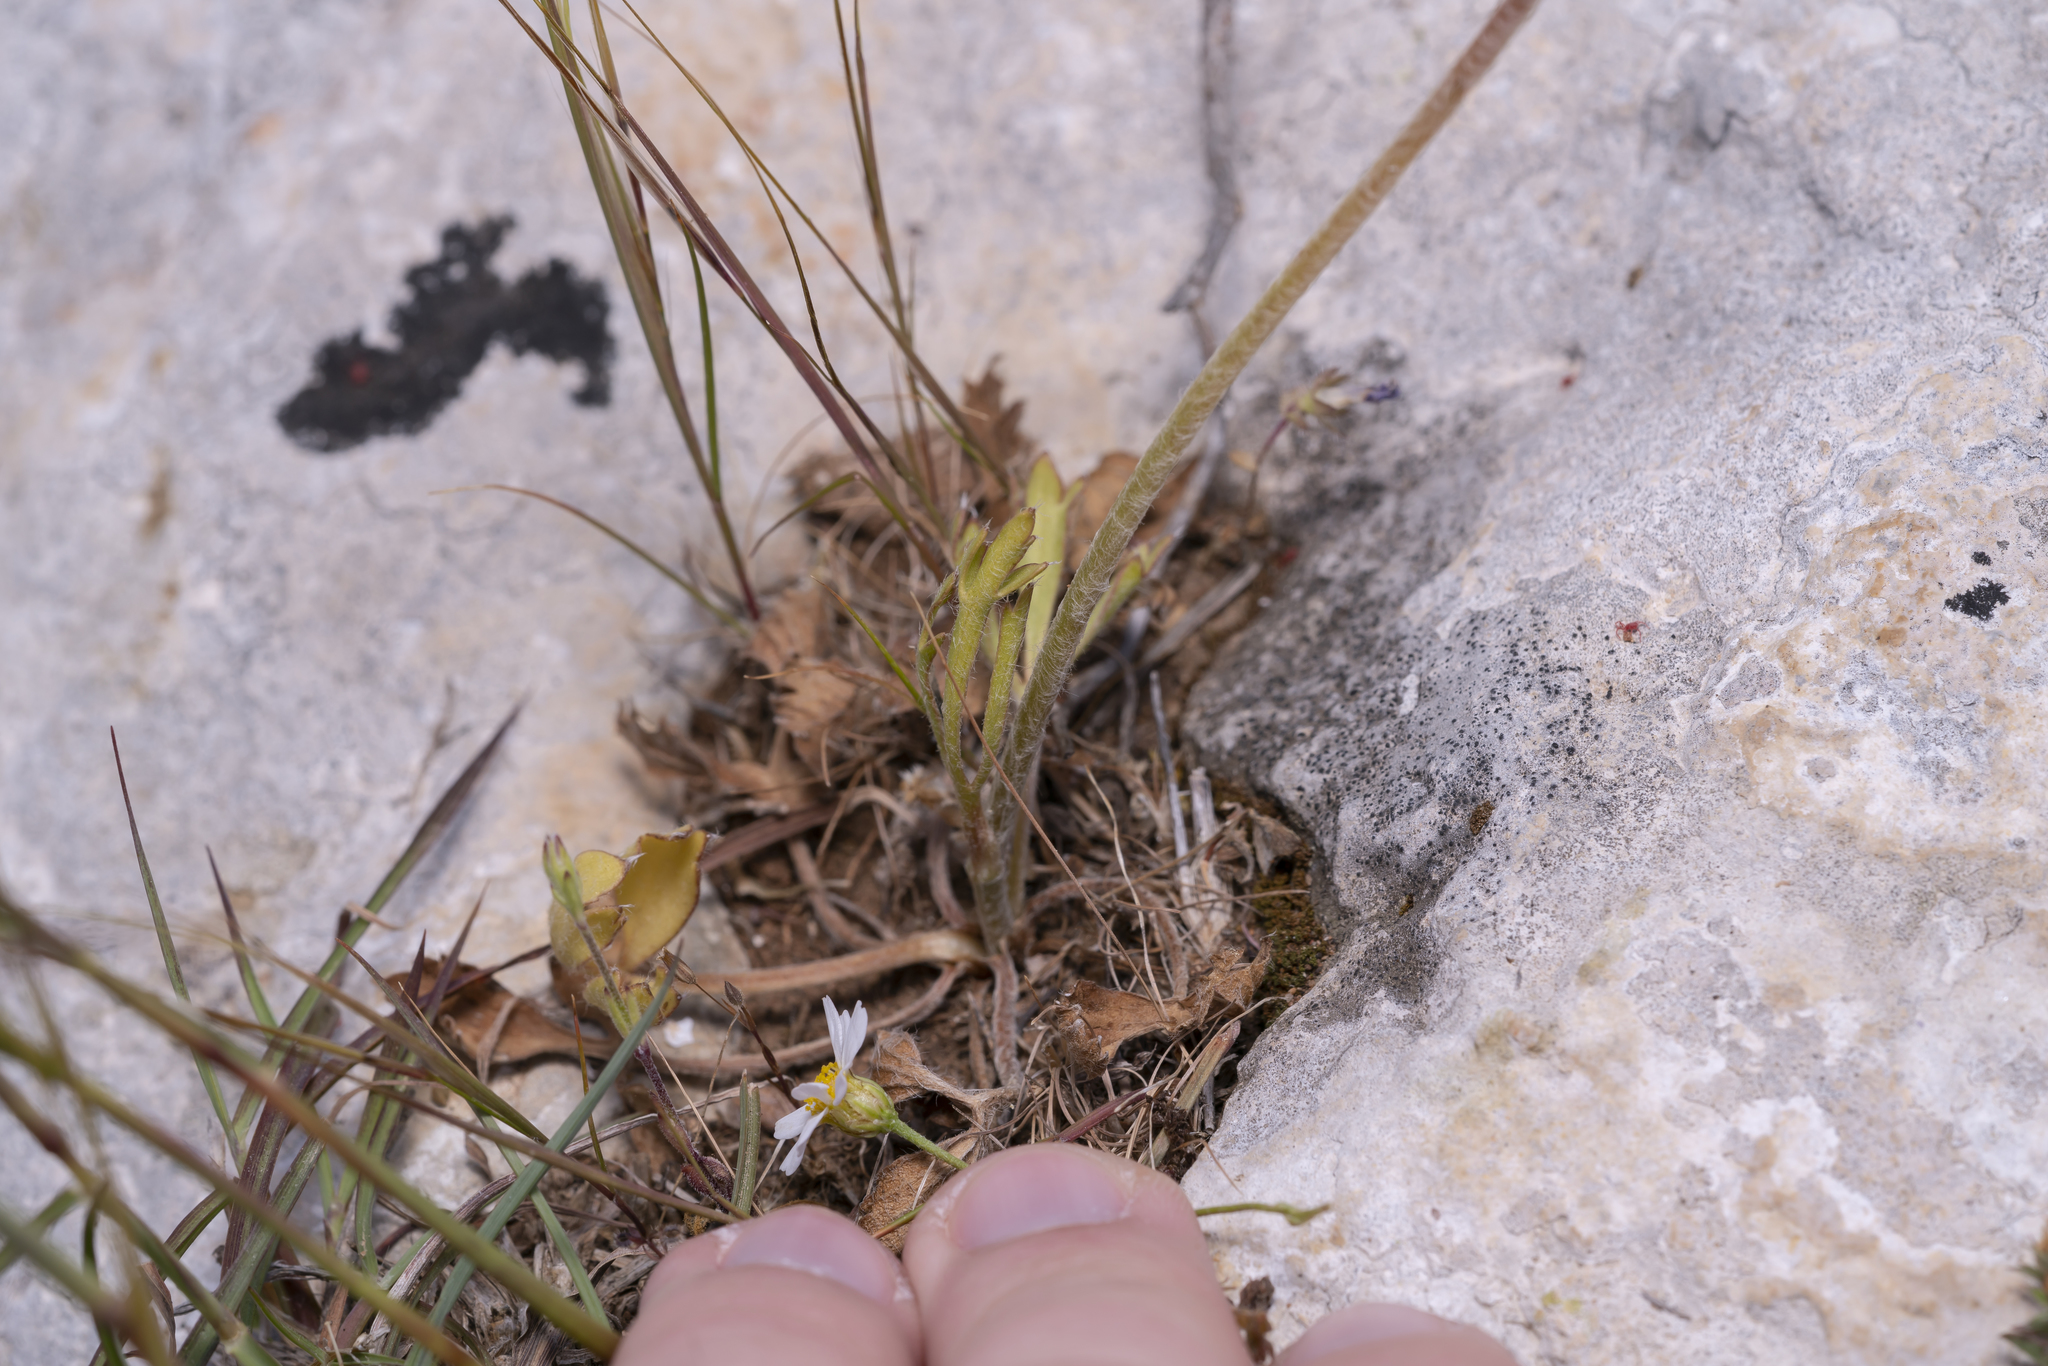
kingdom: Plantae
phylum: Tracheophyta
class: Magnoliopsida
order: Ranunculales
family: Ranunculaceae
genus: Ranunculus
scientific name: Ranunculus asiaticus
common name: Persian buttercup
